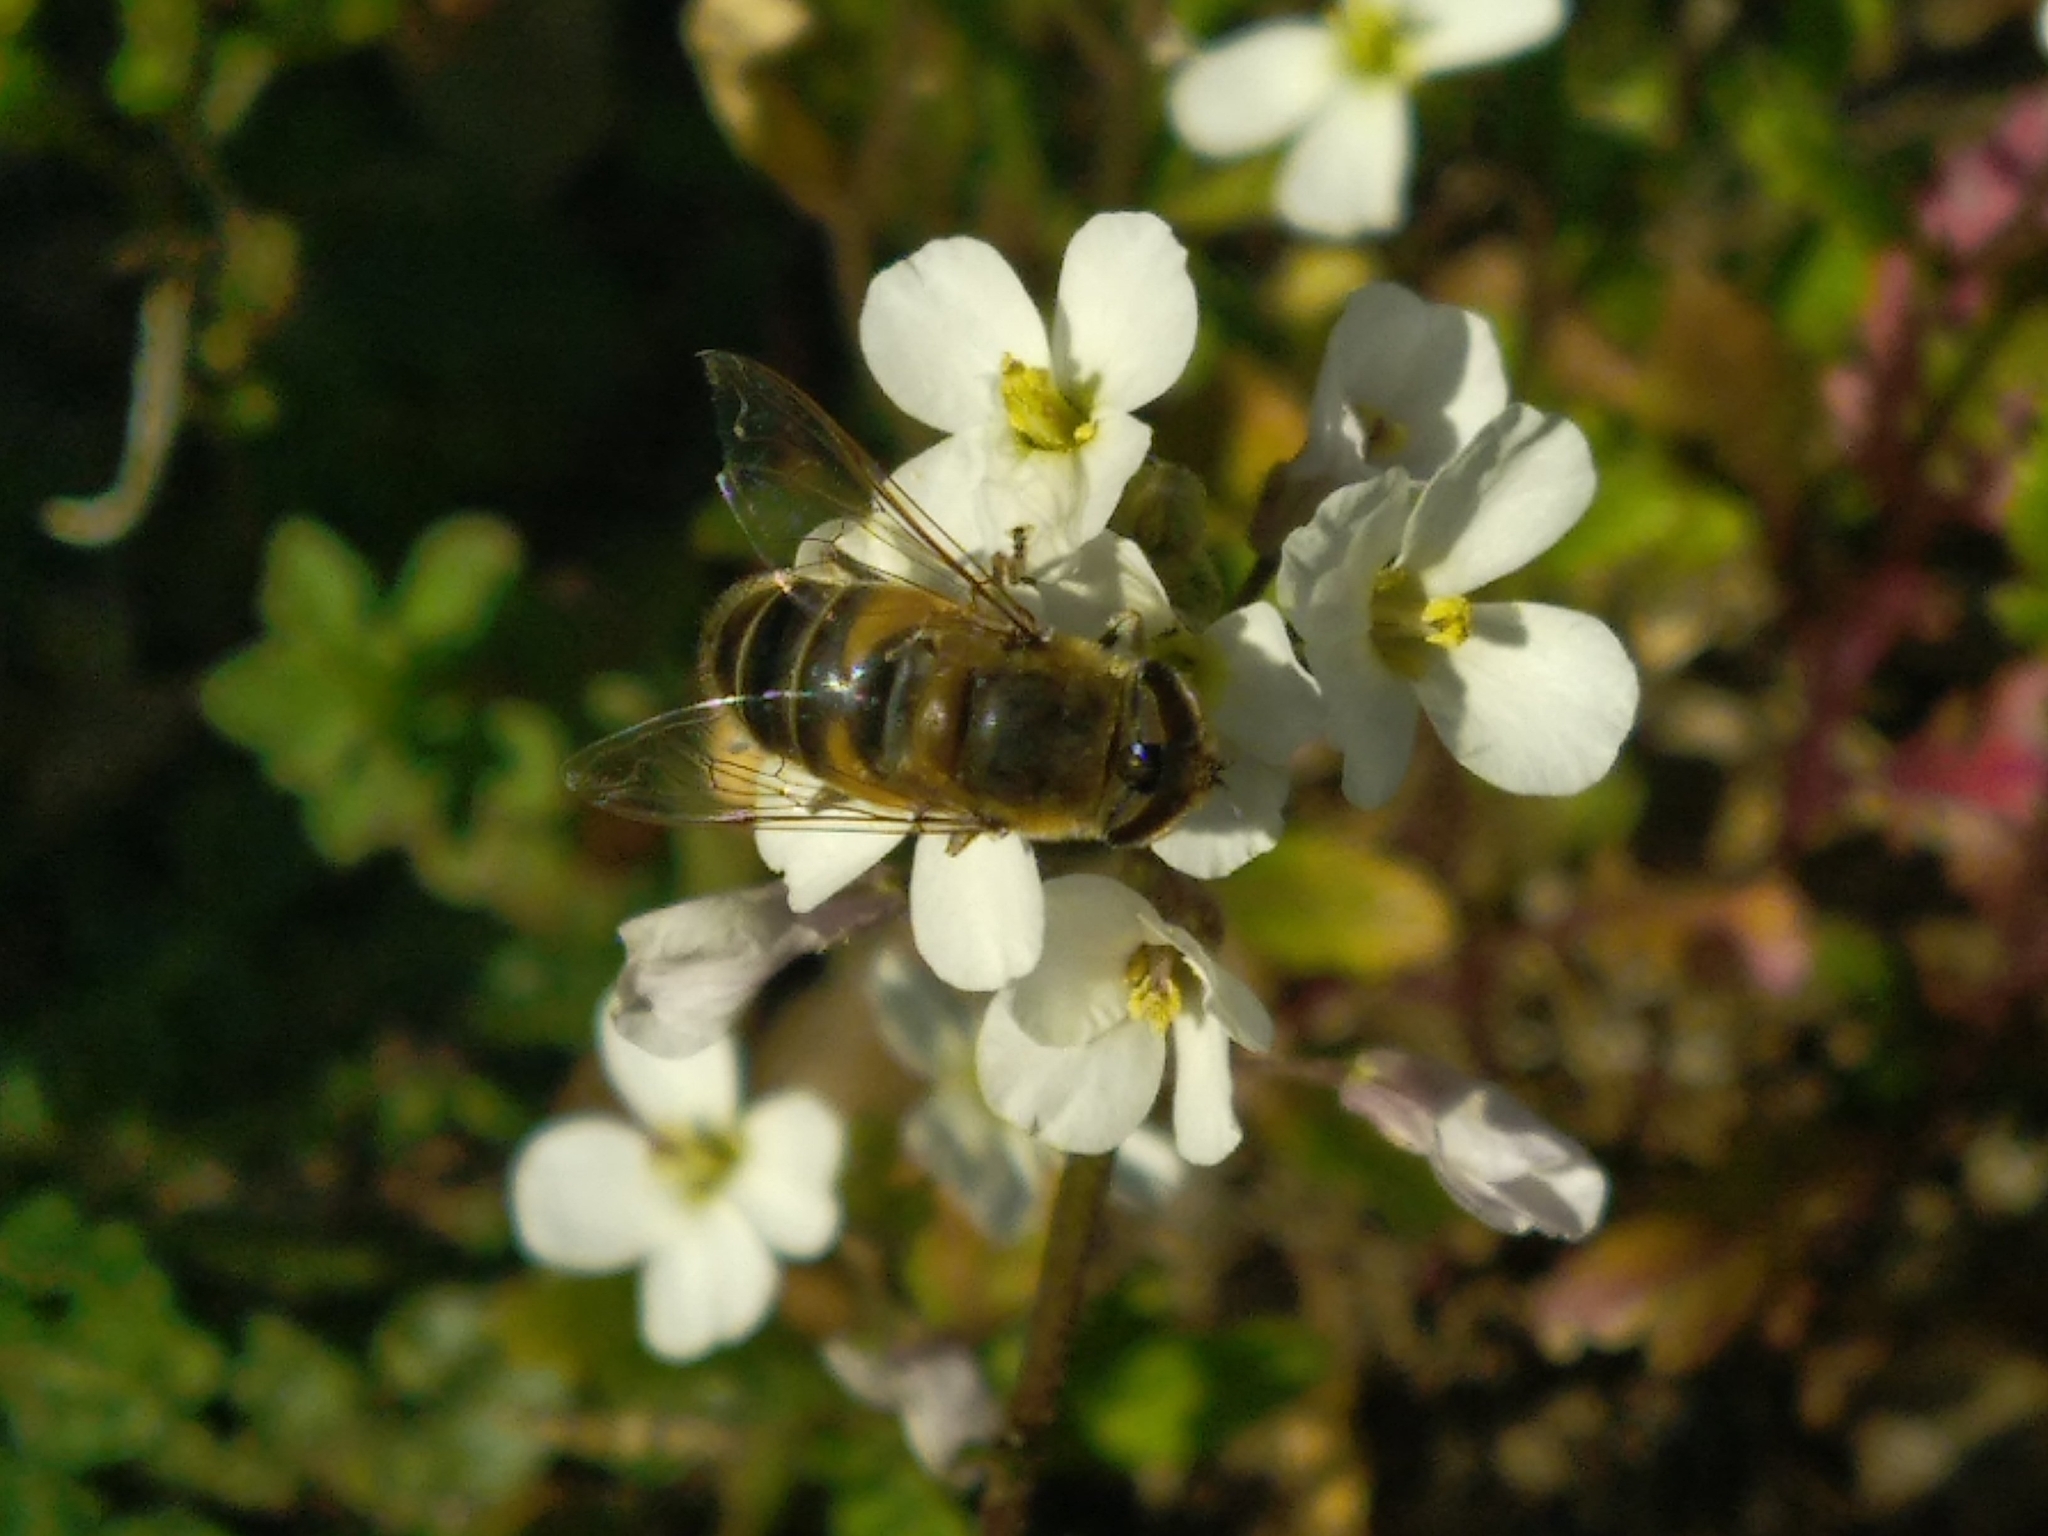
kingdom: Animalia
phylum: Arthropoda
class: Insecta
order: Diptera
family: Syrphidae
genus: Eristalis
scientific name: Eristalis pertinax
